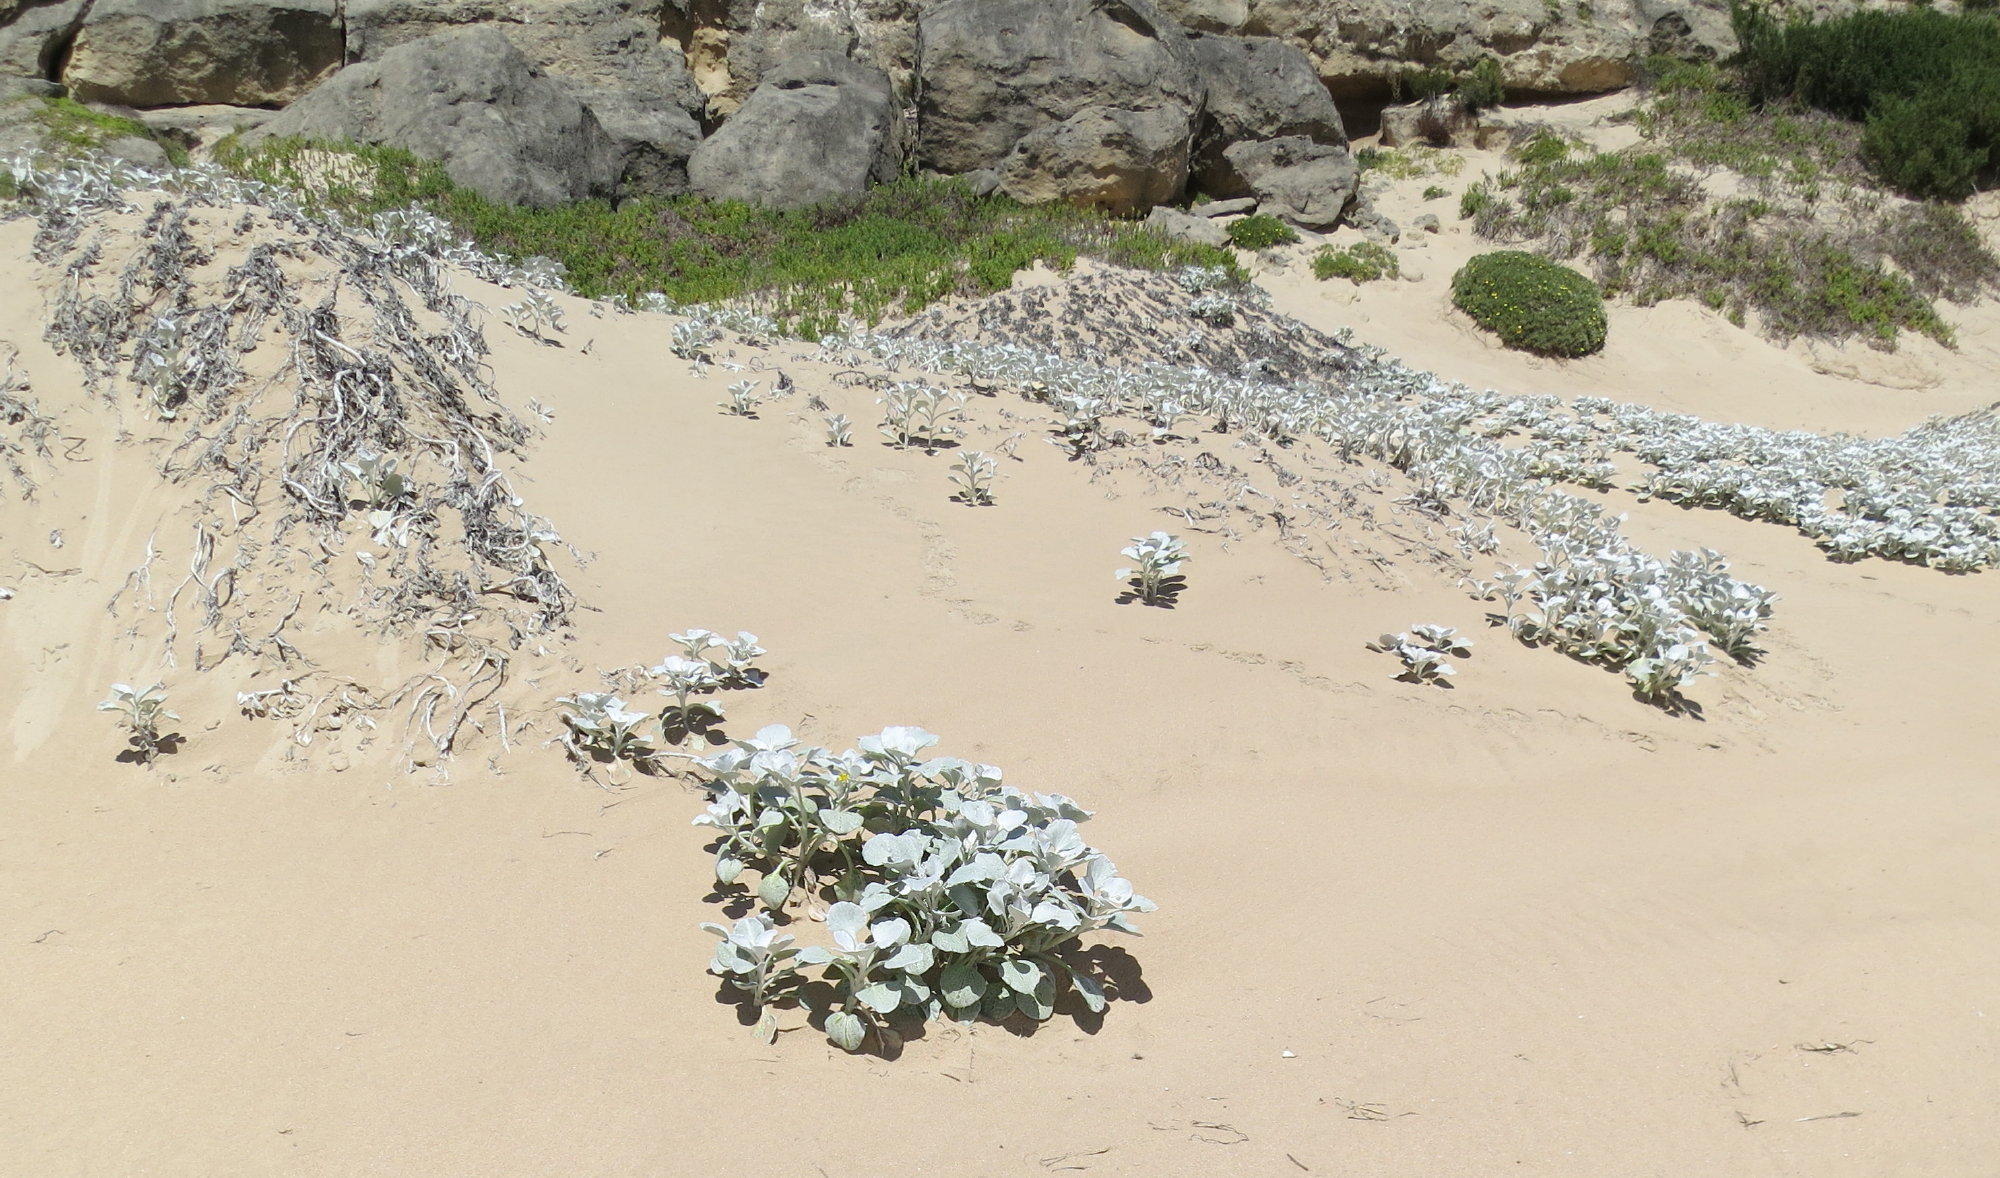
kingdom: Plantae
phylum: Tracheophyta
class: Magnoliopsida
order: Asterales
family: Asteraceae
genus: Arctotheca
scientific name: Arctotheca populifolia
